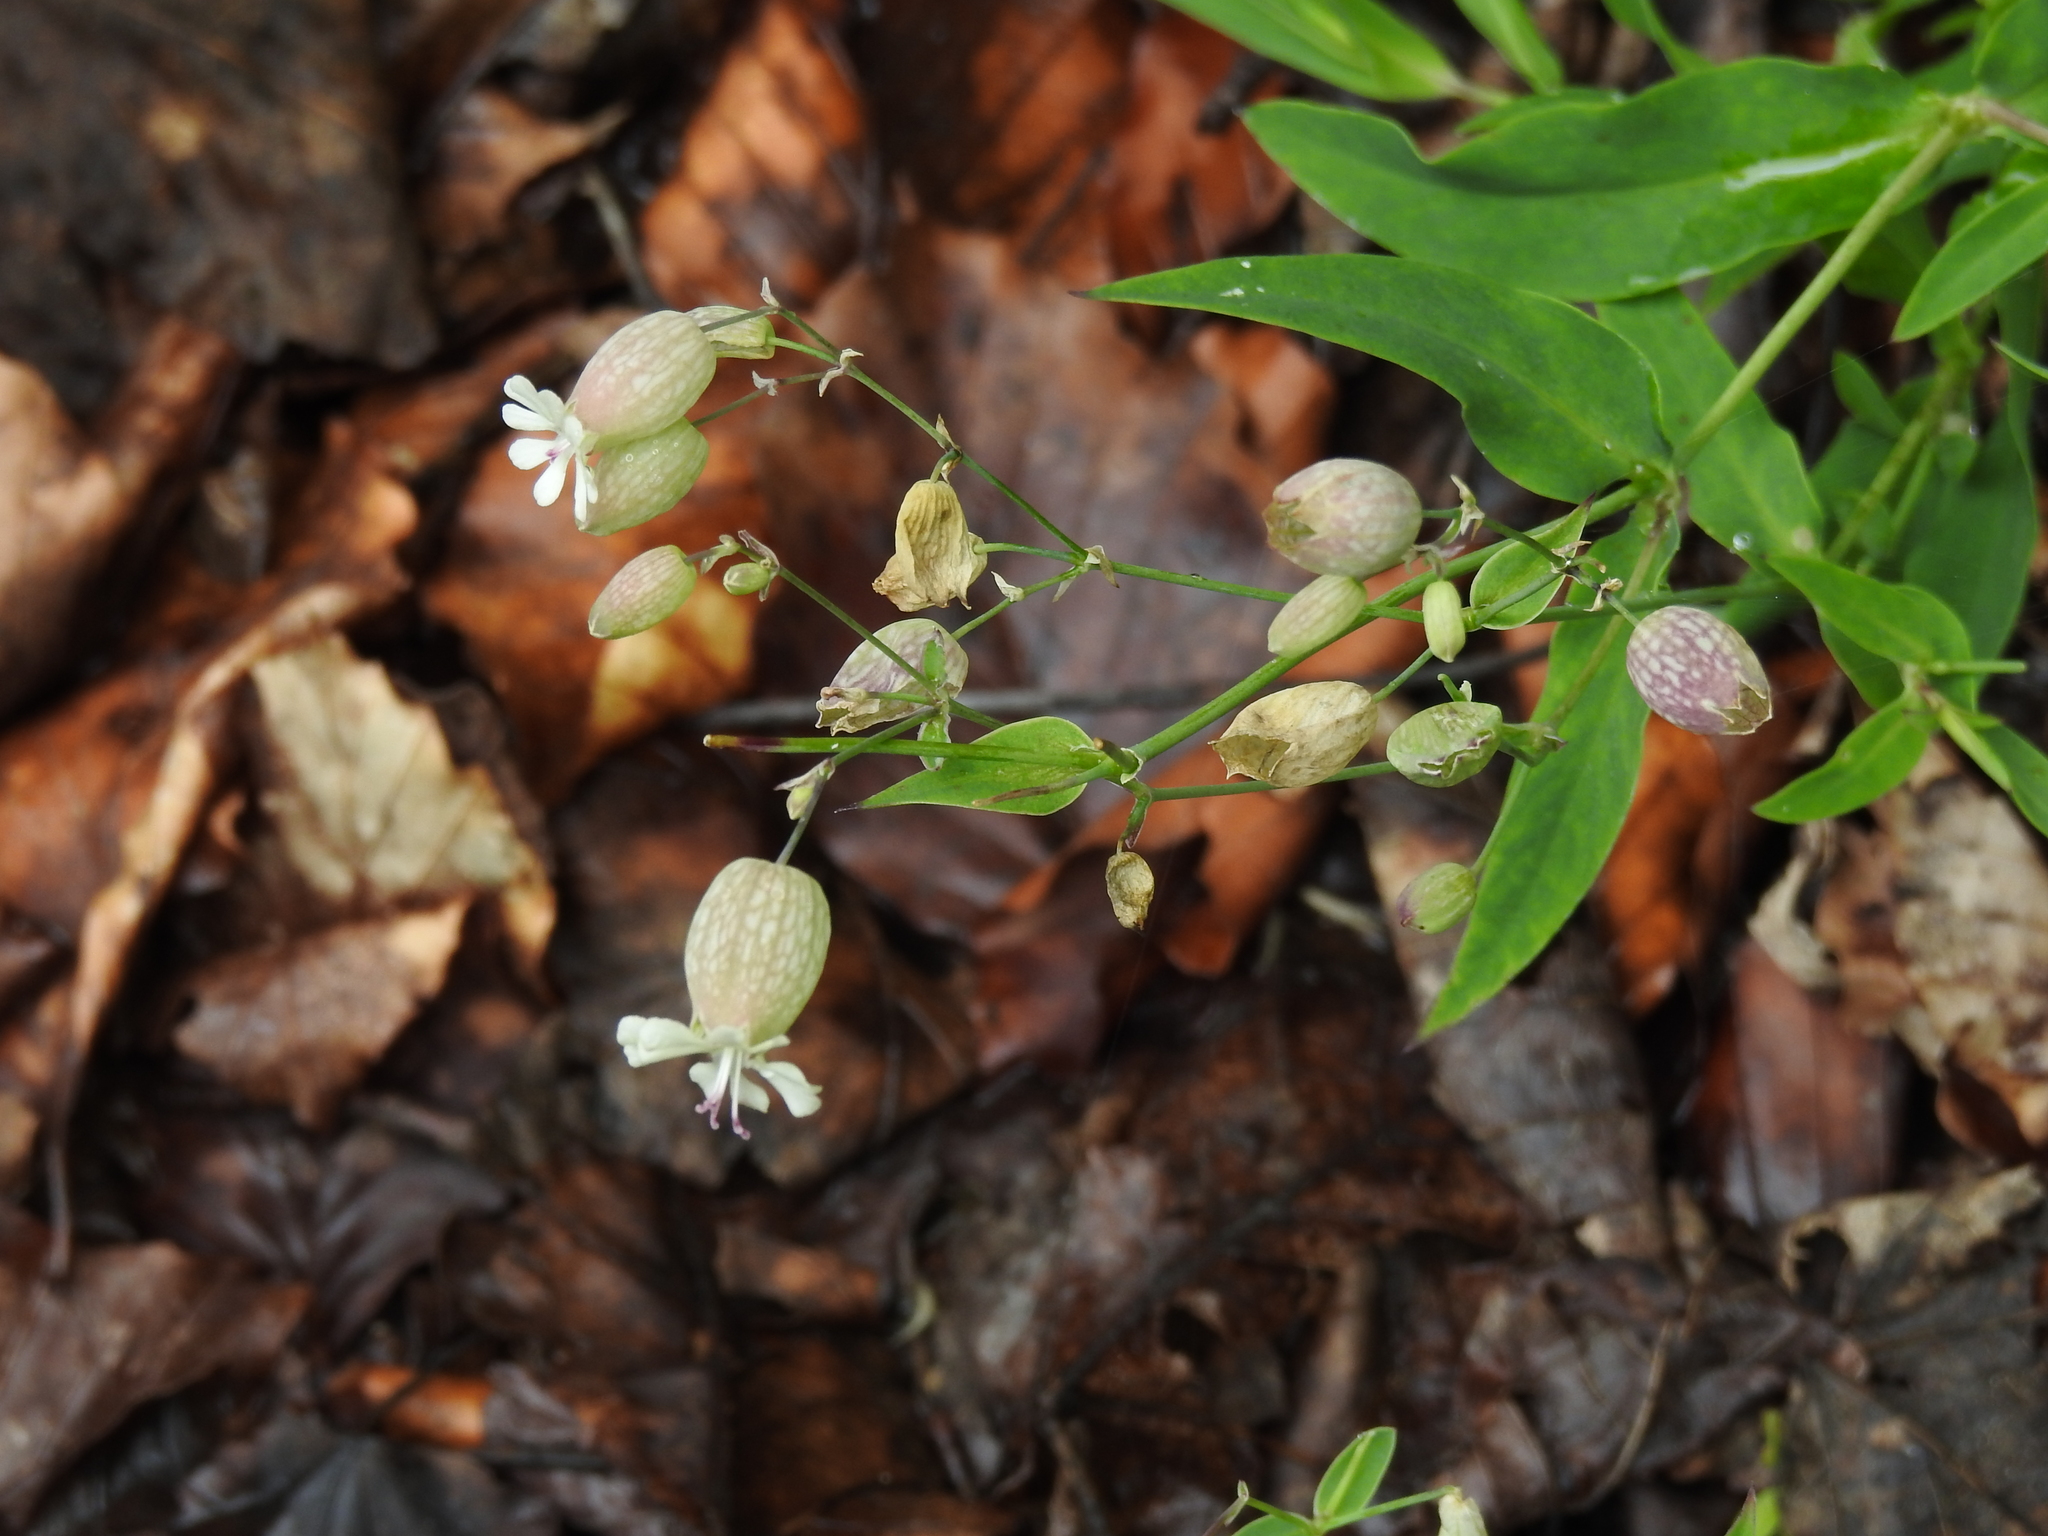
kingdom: Plantae
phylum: Tracheophyta
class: Magnoliopsida
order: Caryophyllales
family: Caryophyllaceae
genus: Silene
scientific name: Silene vulgaris
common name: Bladder campion
